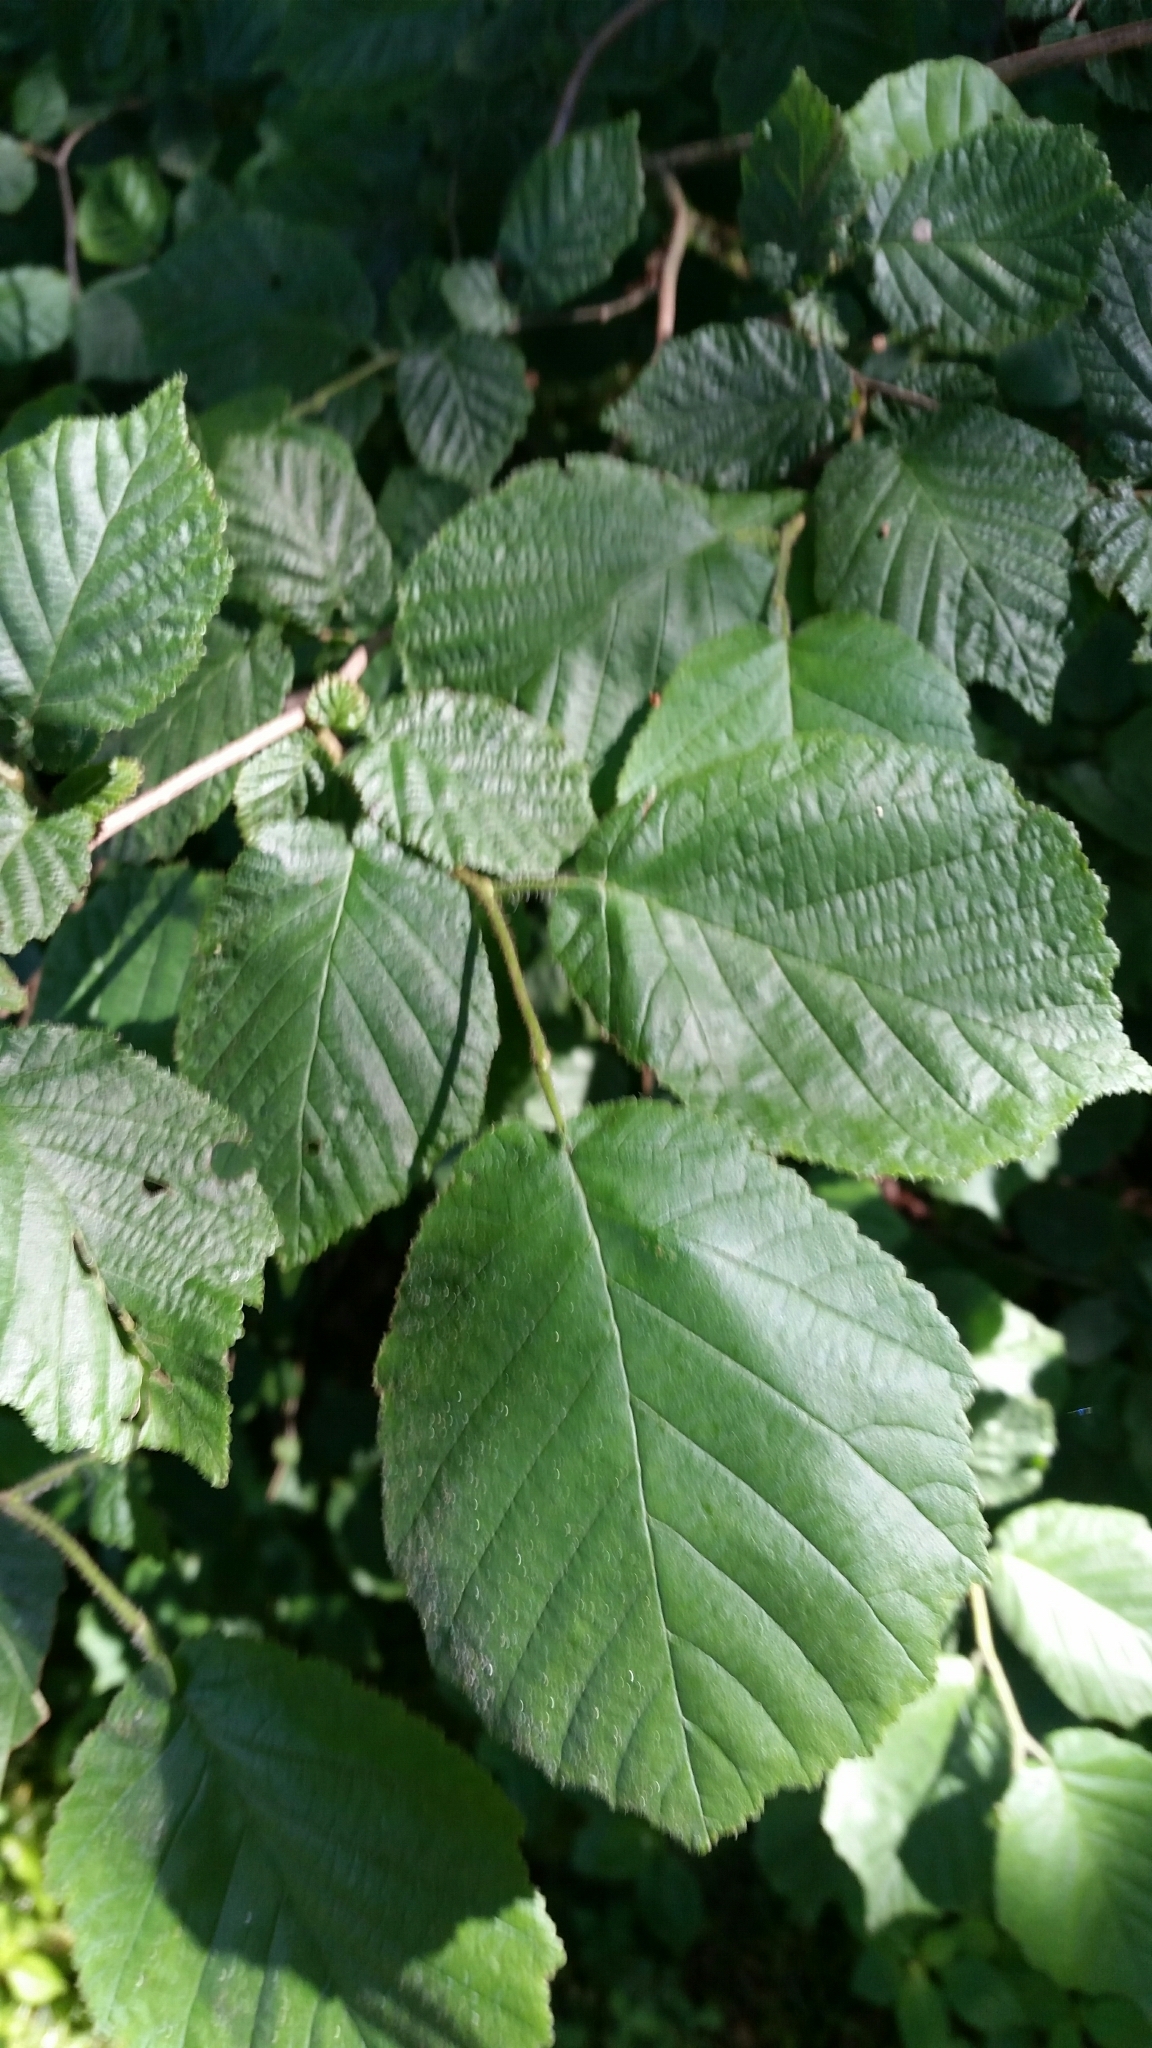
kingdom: Plantae
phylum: Tracheophyta
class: Magnoliopsida
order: Fagales
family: Betulaceae
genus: Corylus
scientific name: Corylus avellana
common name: European hazel
